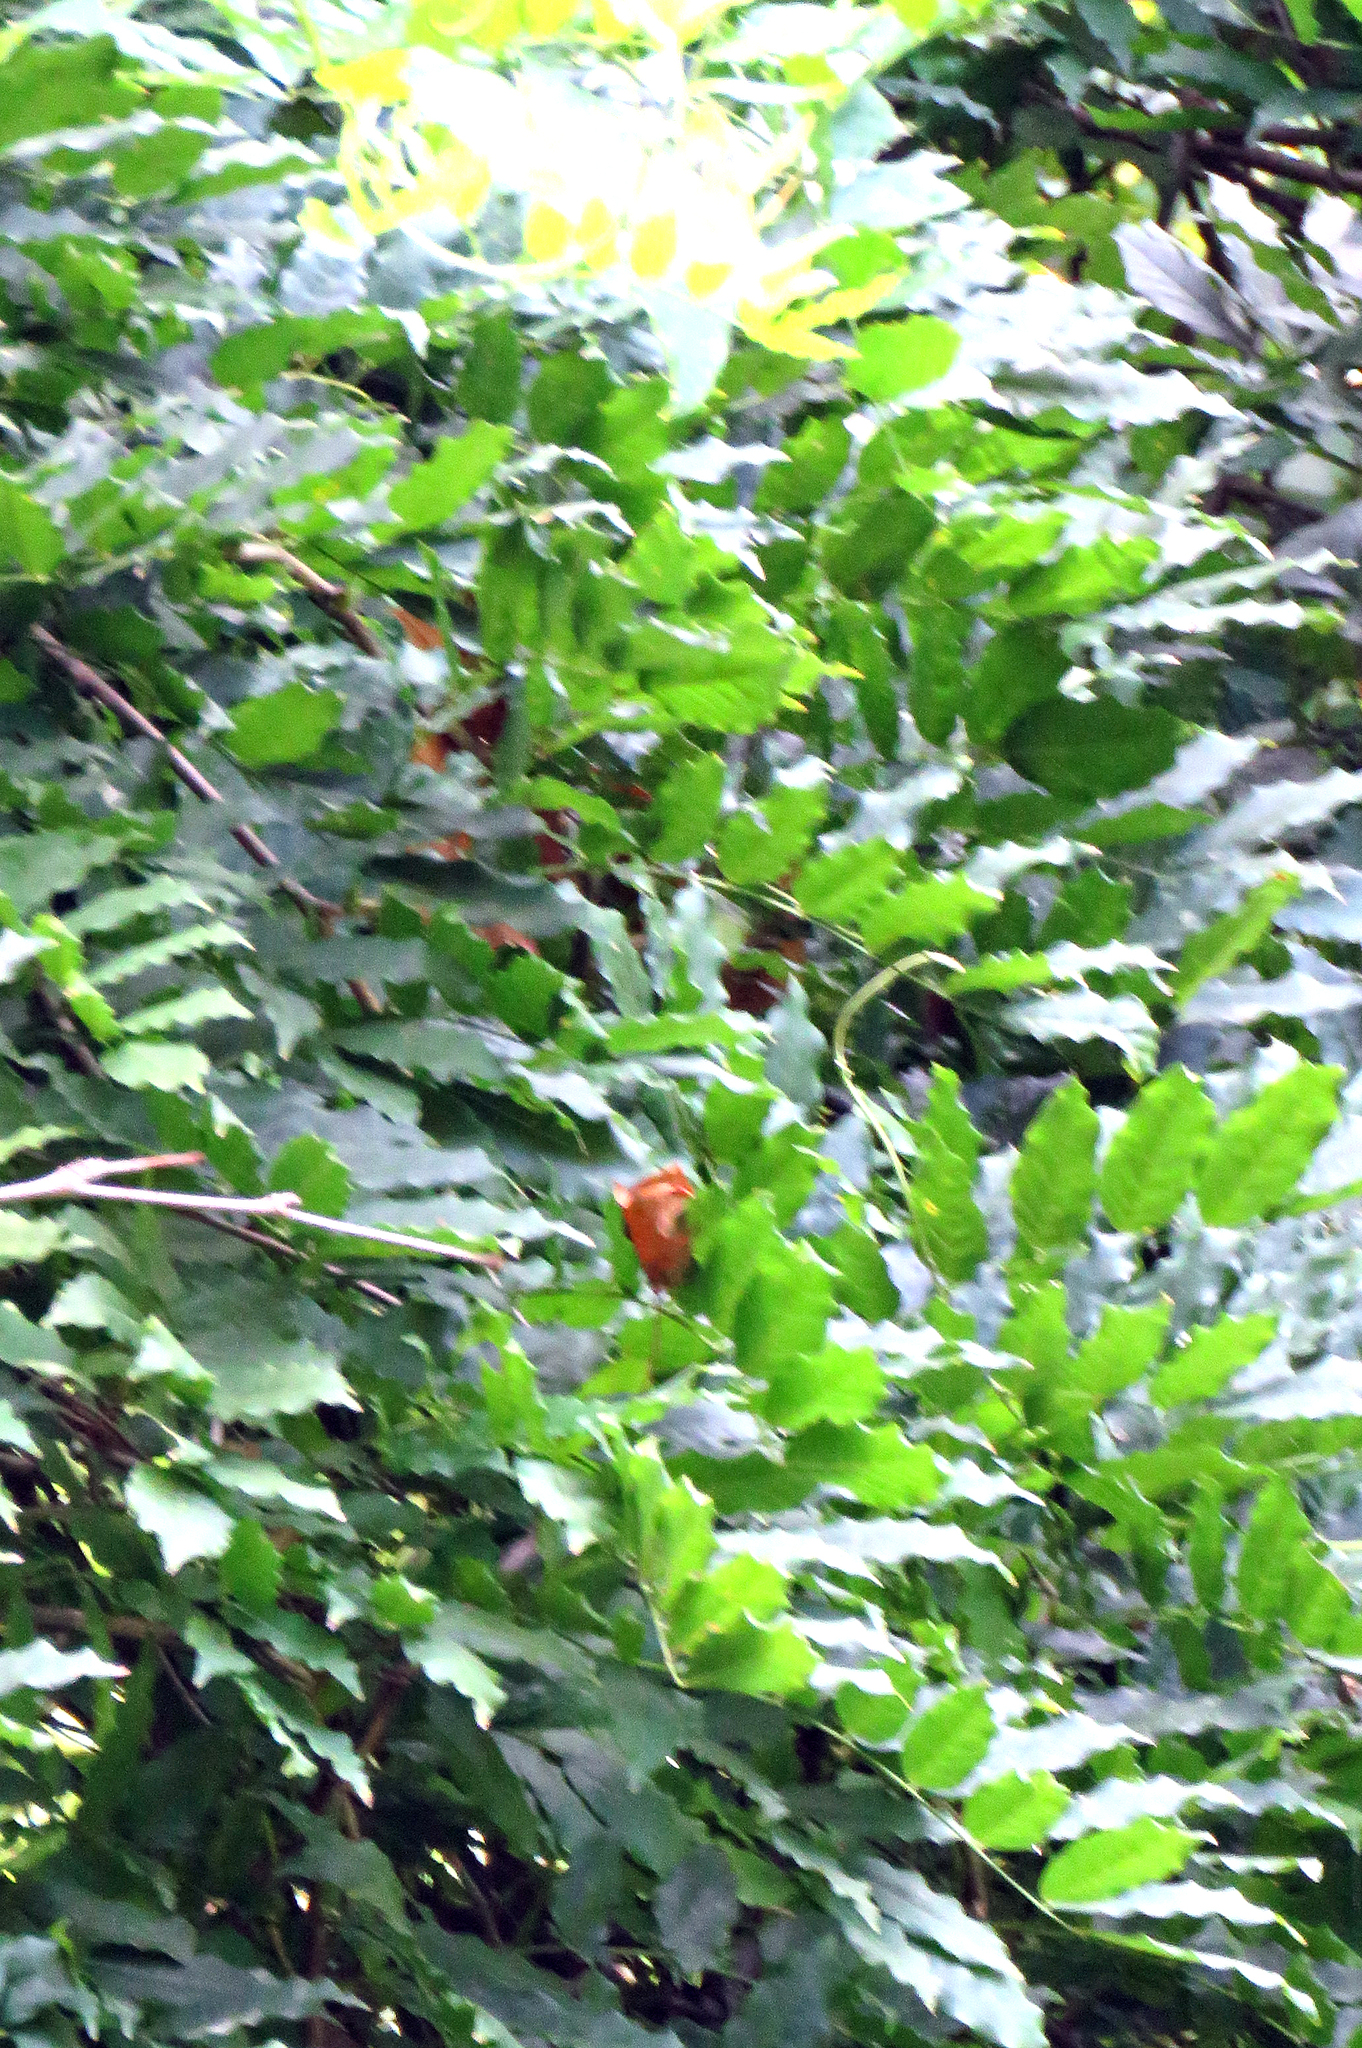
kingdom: Plantae
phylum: Tracheophyta
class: Magnoliopsida
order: Lamiales
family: Bignoniaceae
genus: Campsis
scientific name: Campsis radicans
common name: Trumpet-creeper
